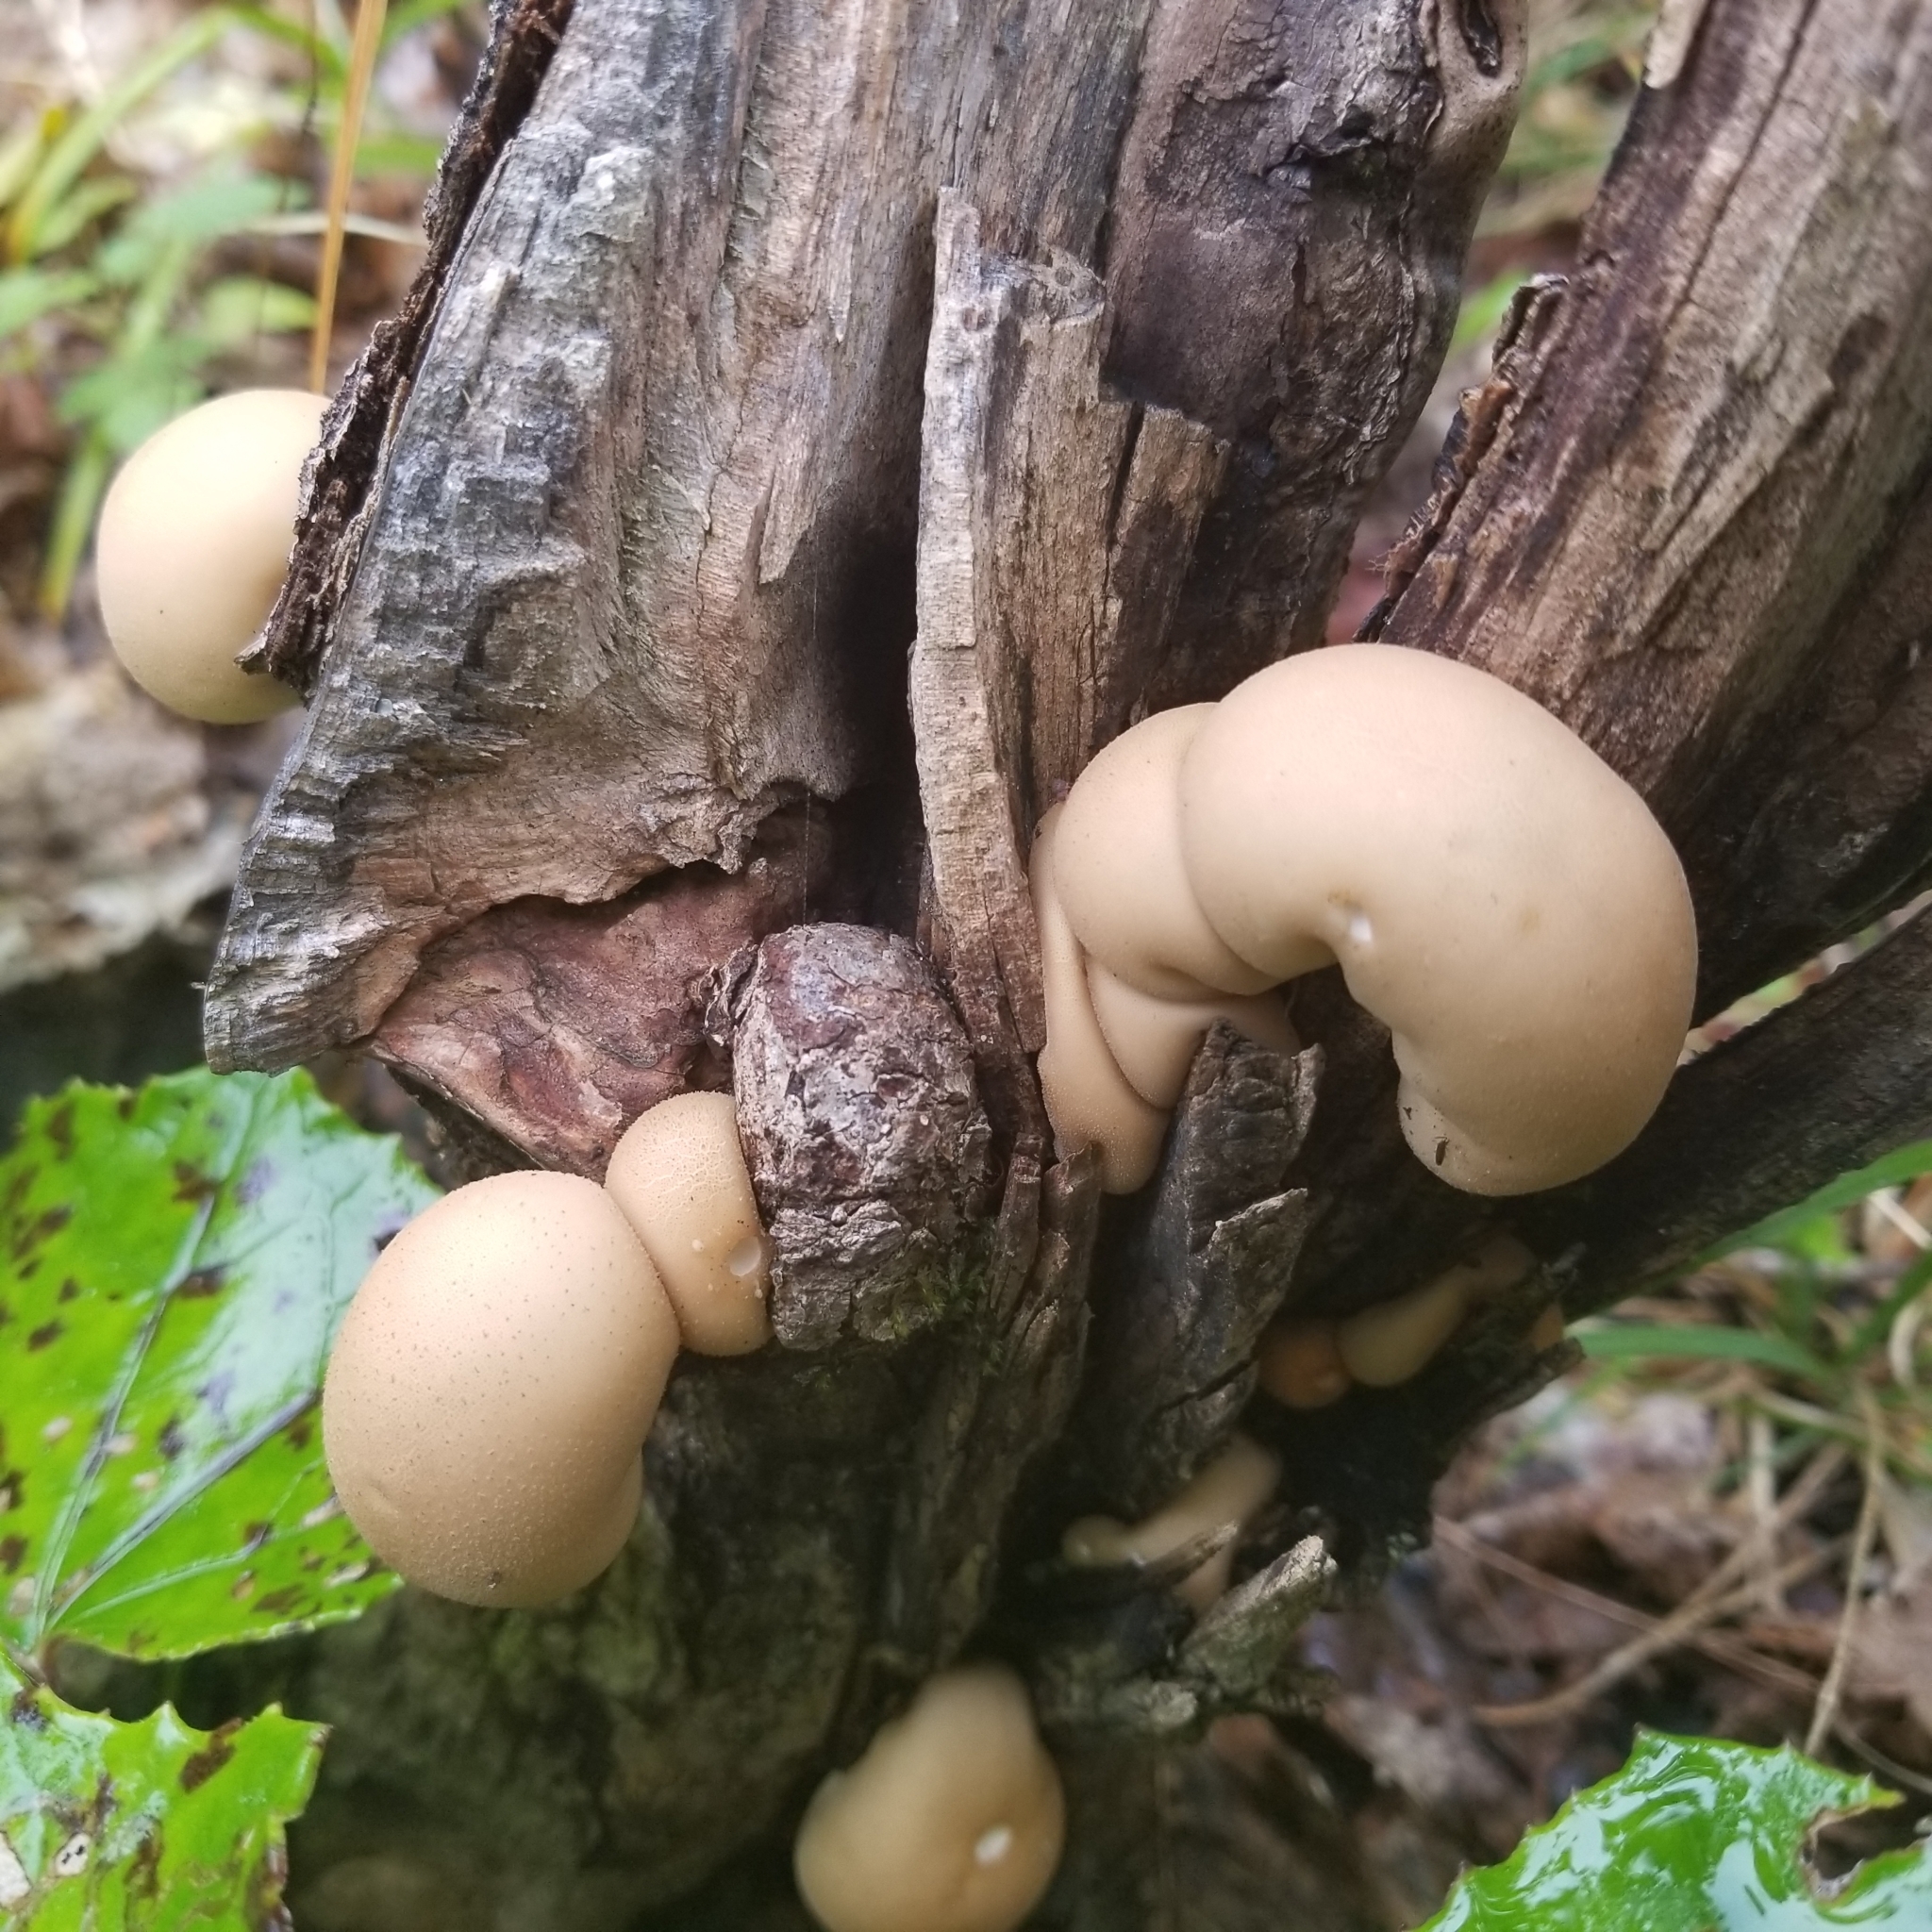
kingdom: Fungi
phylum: Basidiomycota
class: Agaricomycetes
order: Agaricales
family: Lycoperdaceae
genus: Apioperdon
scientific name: Apioperdon pyriforme
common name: Pear-shaped puffball
